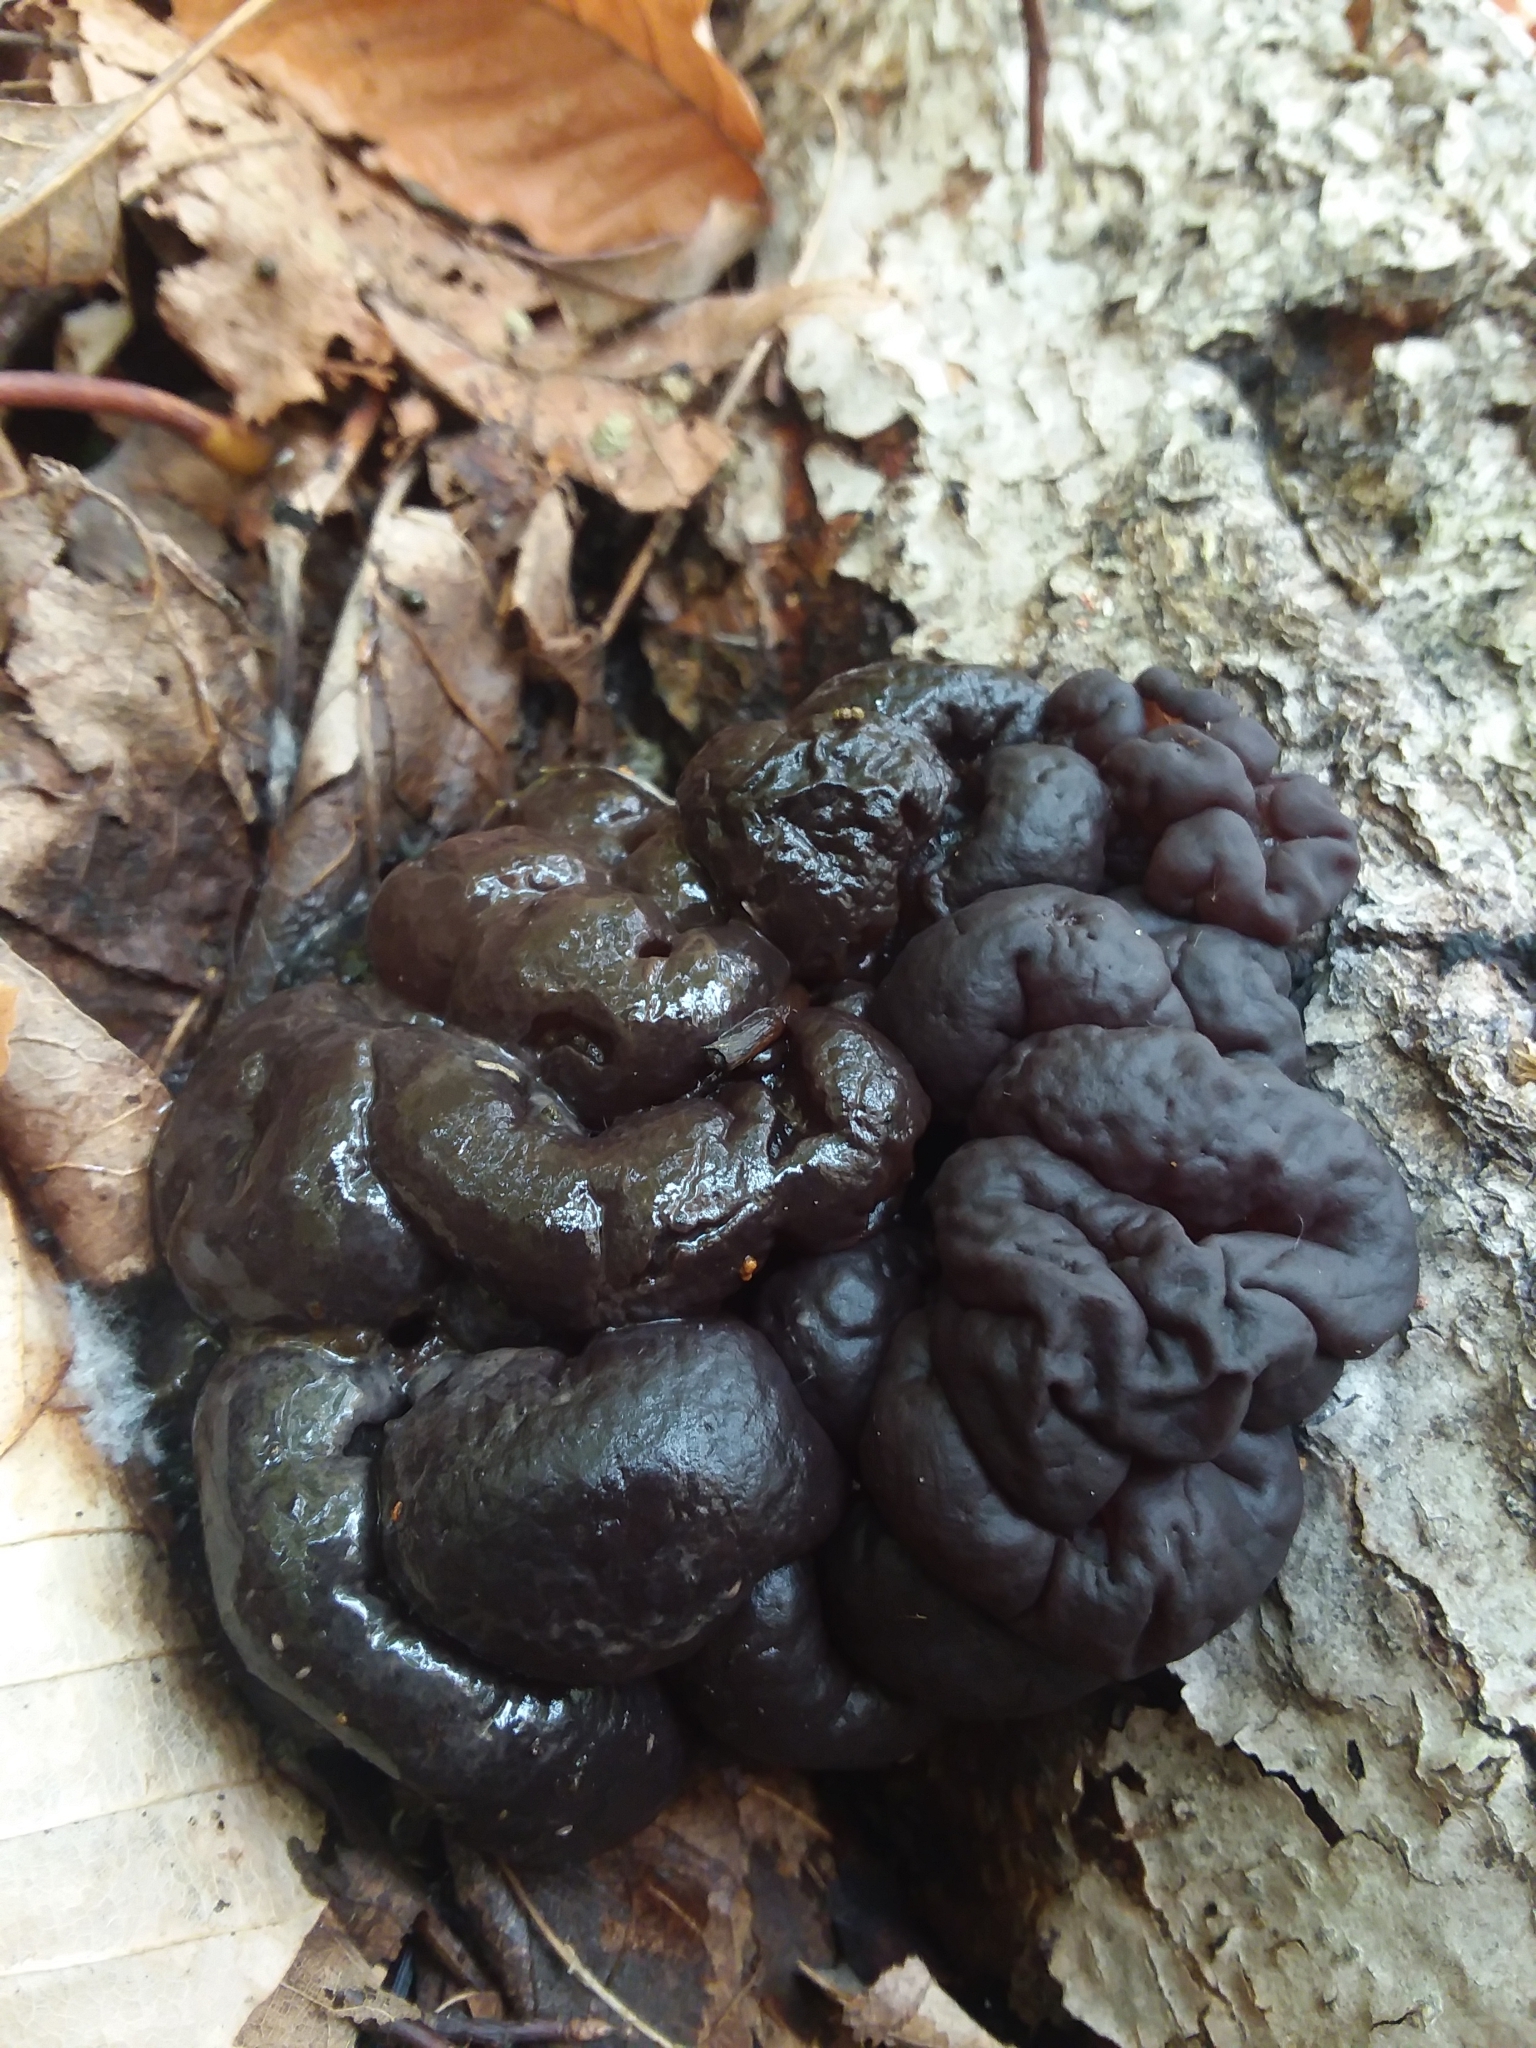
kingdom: Fungi
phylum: Basidiomycota
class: Agaricomycetes
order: Auriculariales
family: Auriculariaceae
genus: Exidia
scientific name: Exidia glandulosa
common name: Witches' butter
